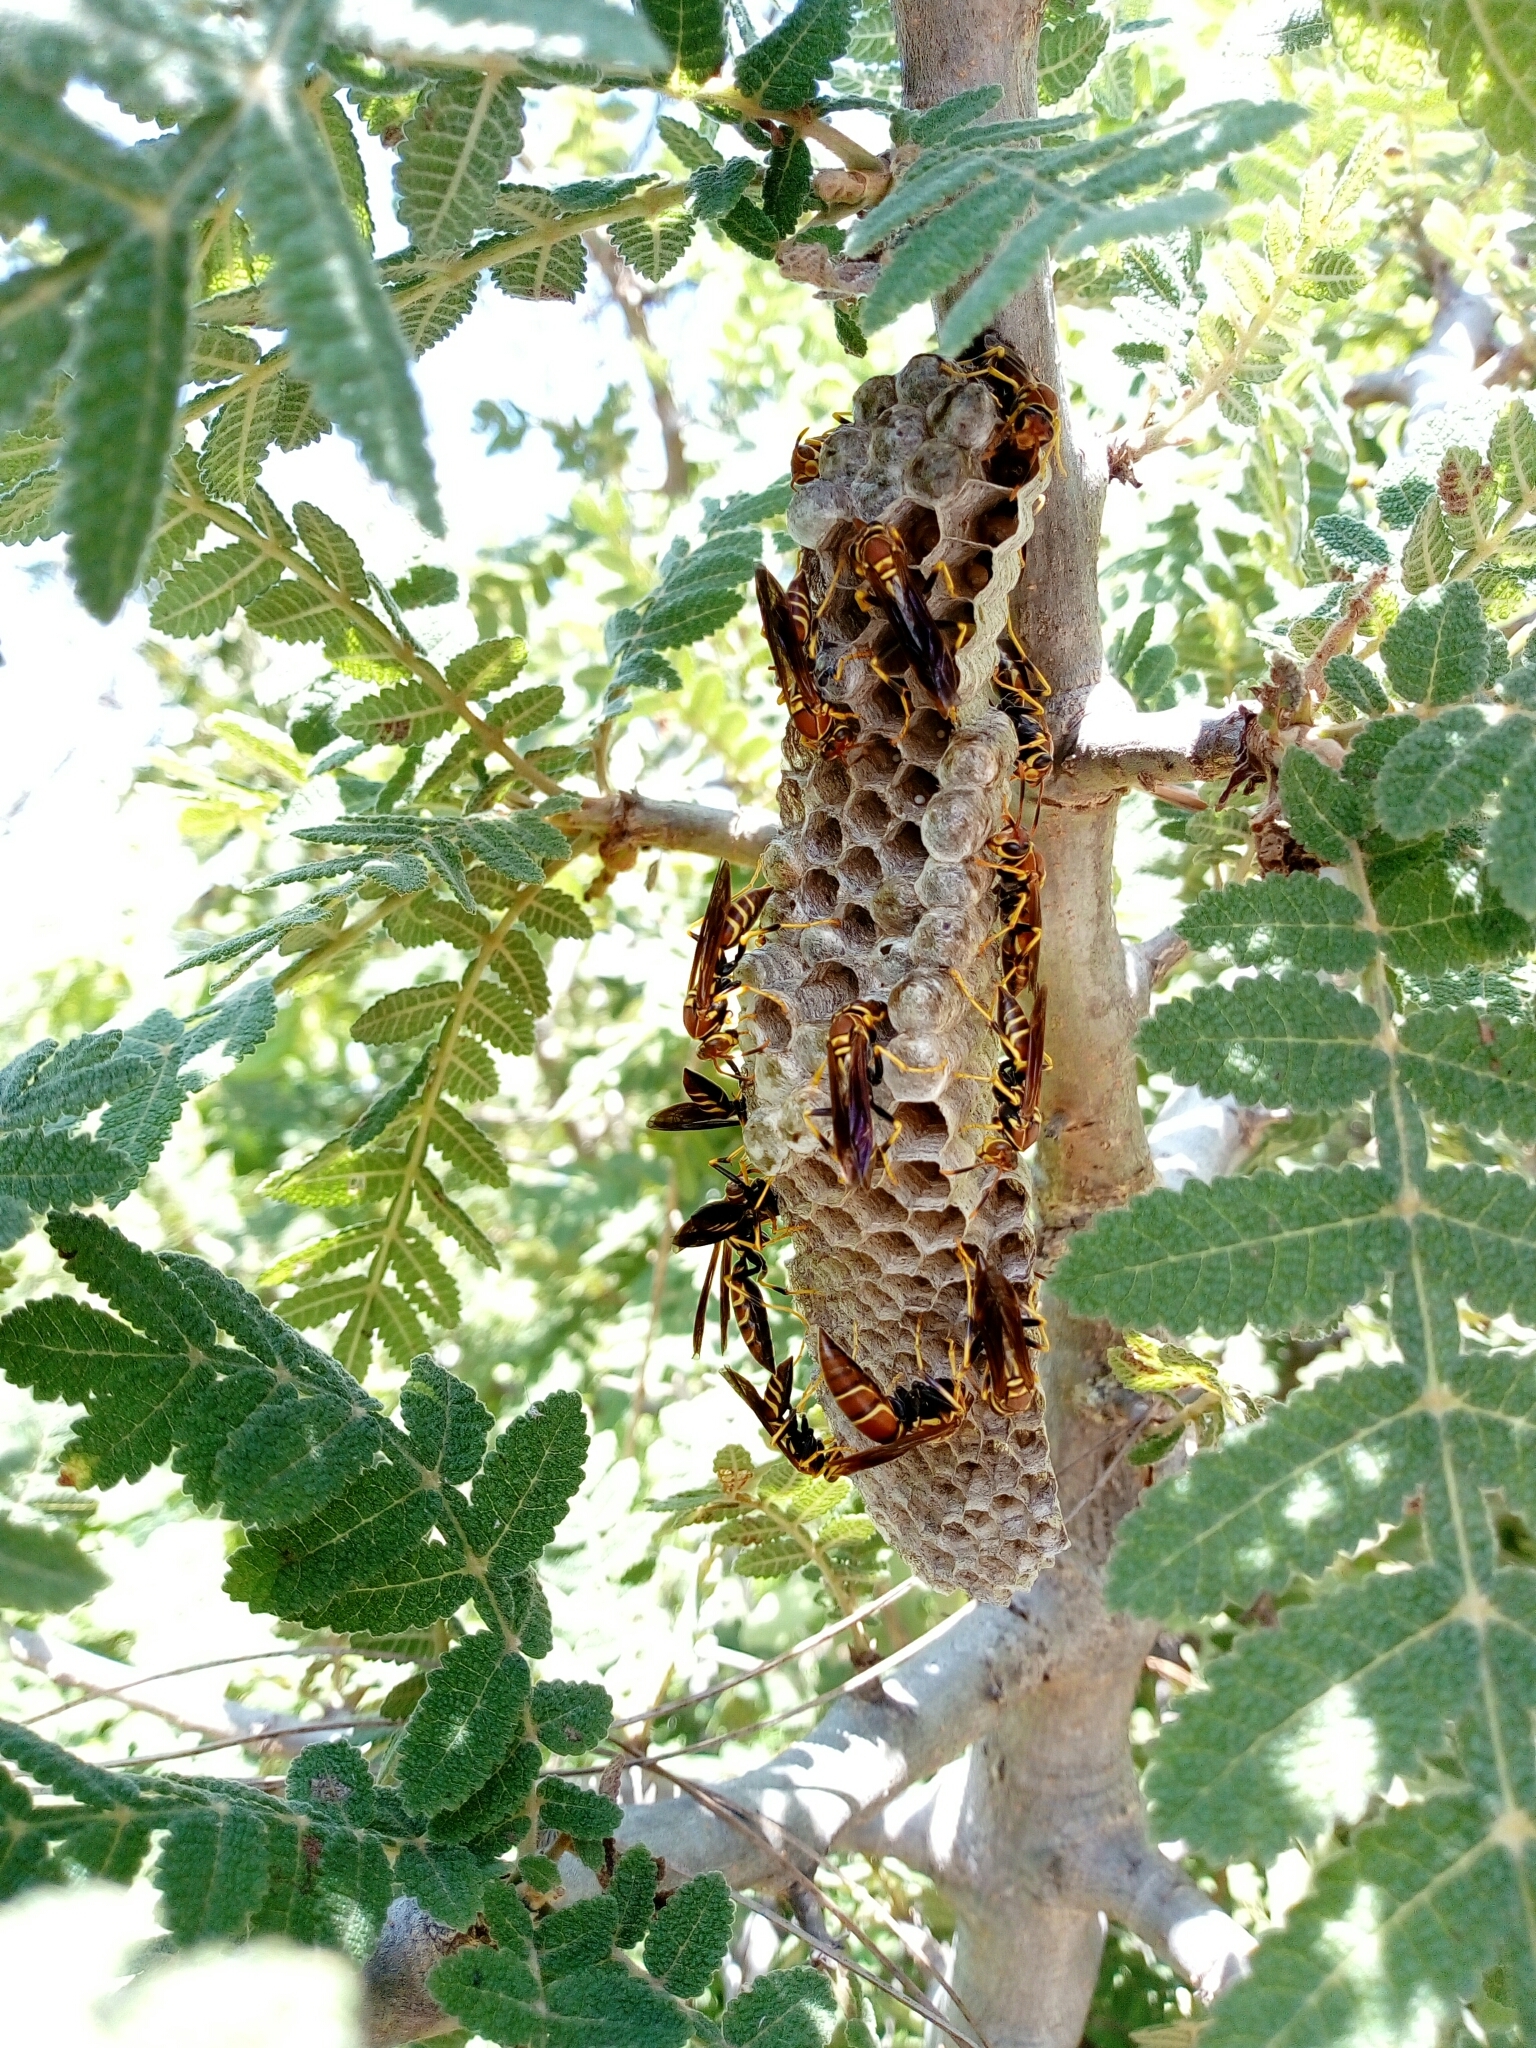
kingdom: Animalia
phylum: Arthropoda
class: Insecta
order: Hymenoptera
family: Eumenidae
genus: Polistes
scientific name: Polistes instabilis
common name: Unstable paper wasp
